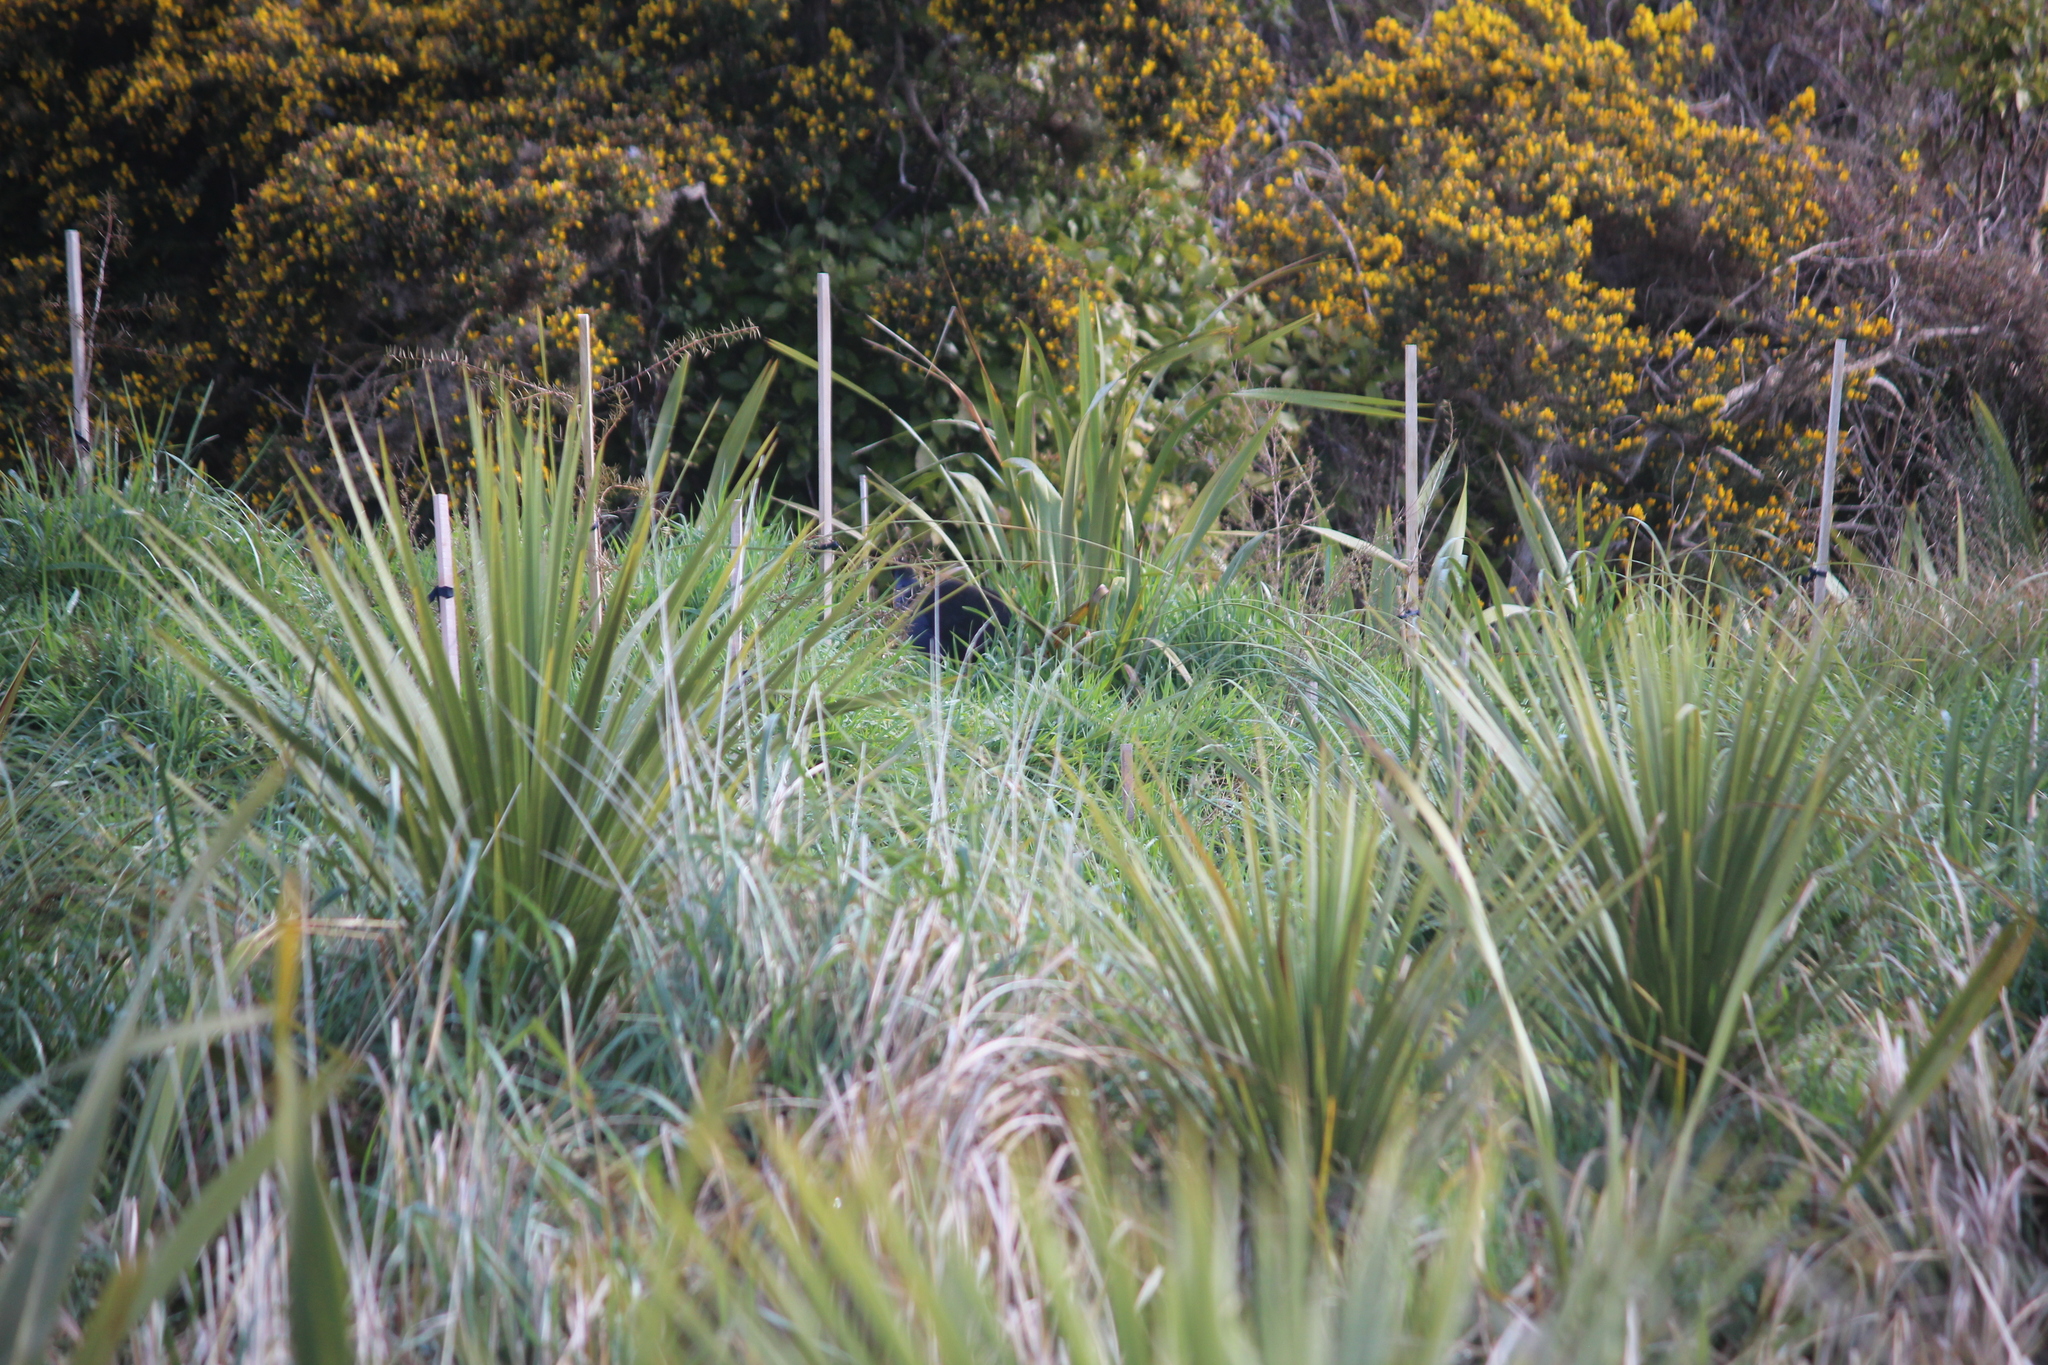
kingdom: Animalia
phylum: Chordata
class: Aves
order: Gruiformes
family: Rallidae
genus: Porphyrio
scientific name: Porphyrio melanotus
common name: Australasian swamphen
